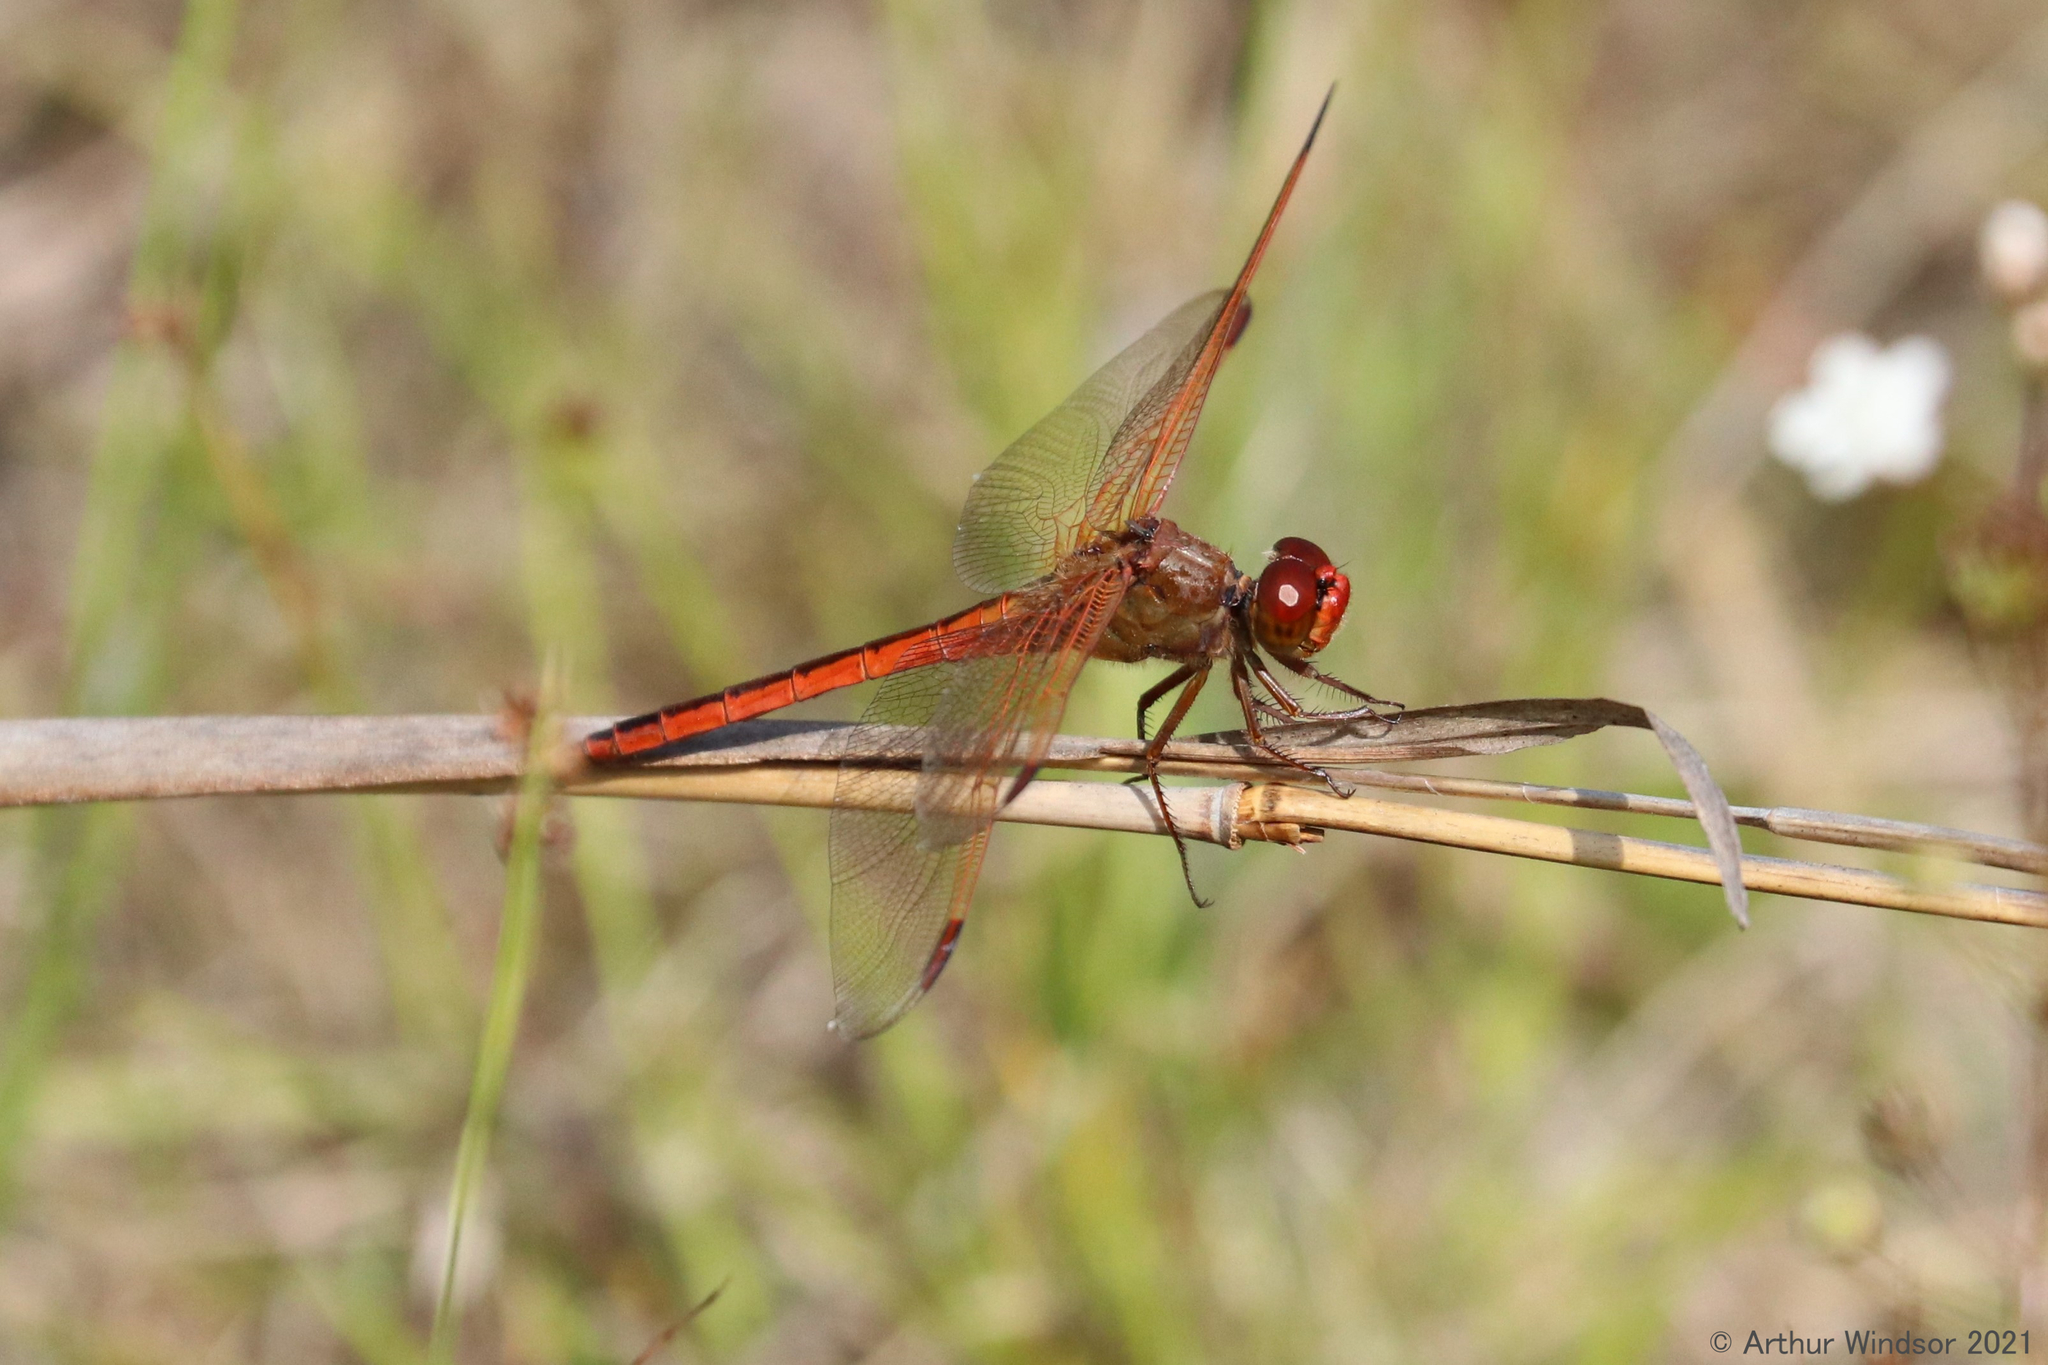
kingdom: Animalia
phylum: Arthropoda
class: Insecta
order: Odonata
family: Libellulidae
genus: Libellula
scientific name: Libellula needhami
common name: Needham's skimmer
